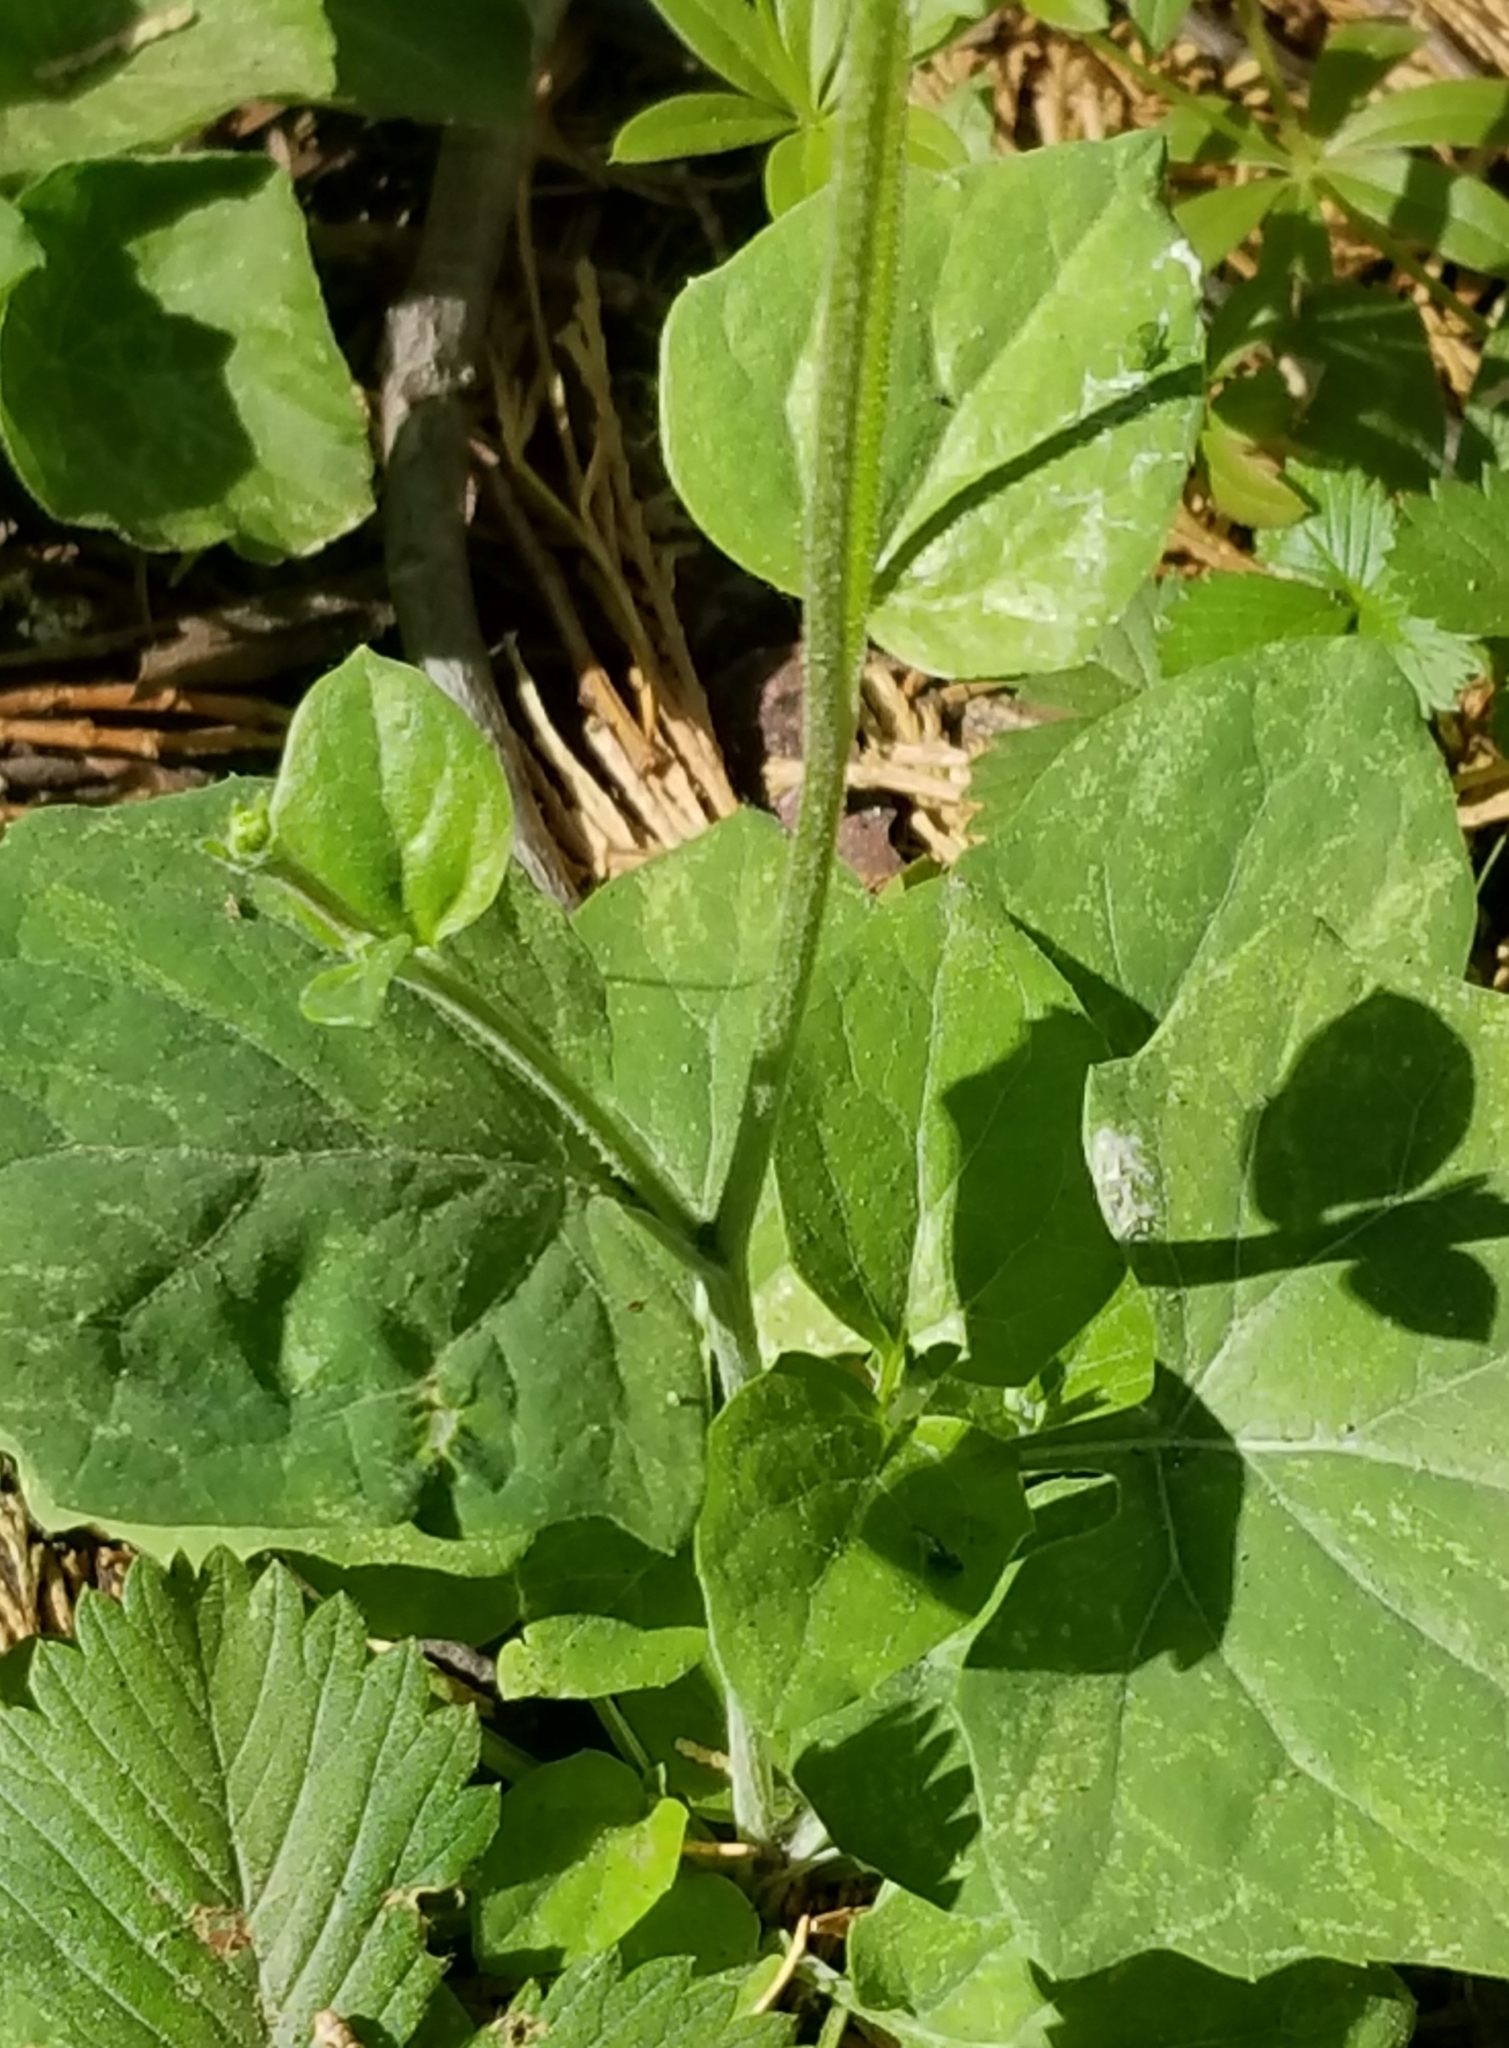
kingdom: Plantae
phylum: Tracheophyta
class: Magnoliopsida
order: Asterales
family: Asteraceae
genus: Adenocaulon
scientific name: Adenocaulon bicolor
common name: Trailplant
